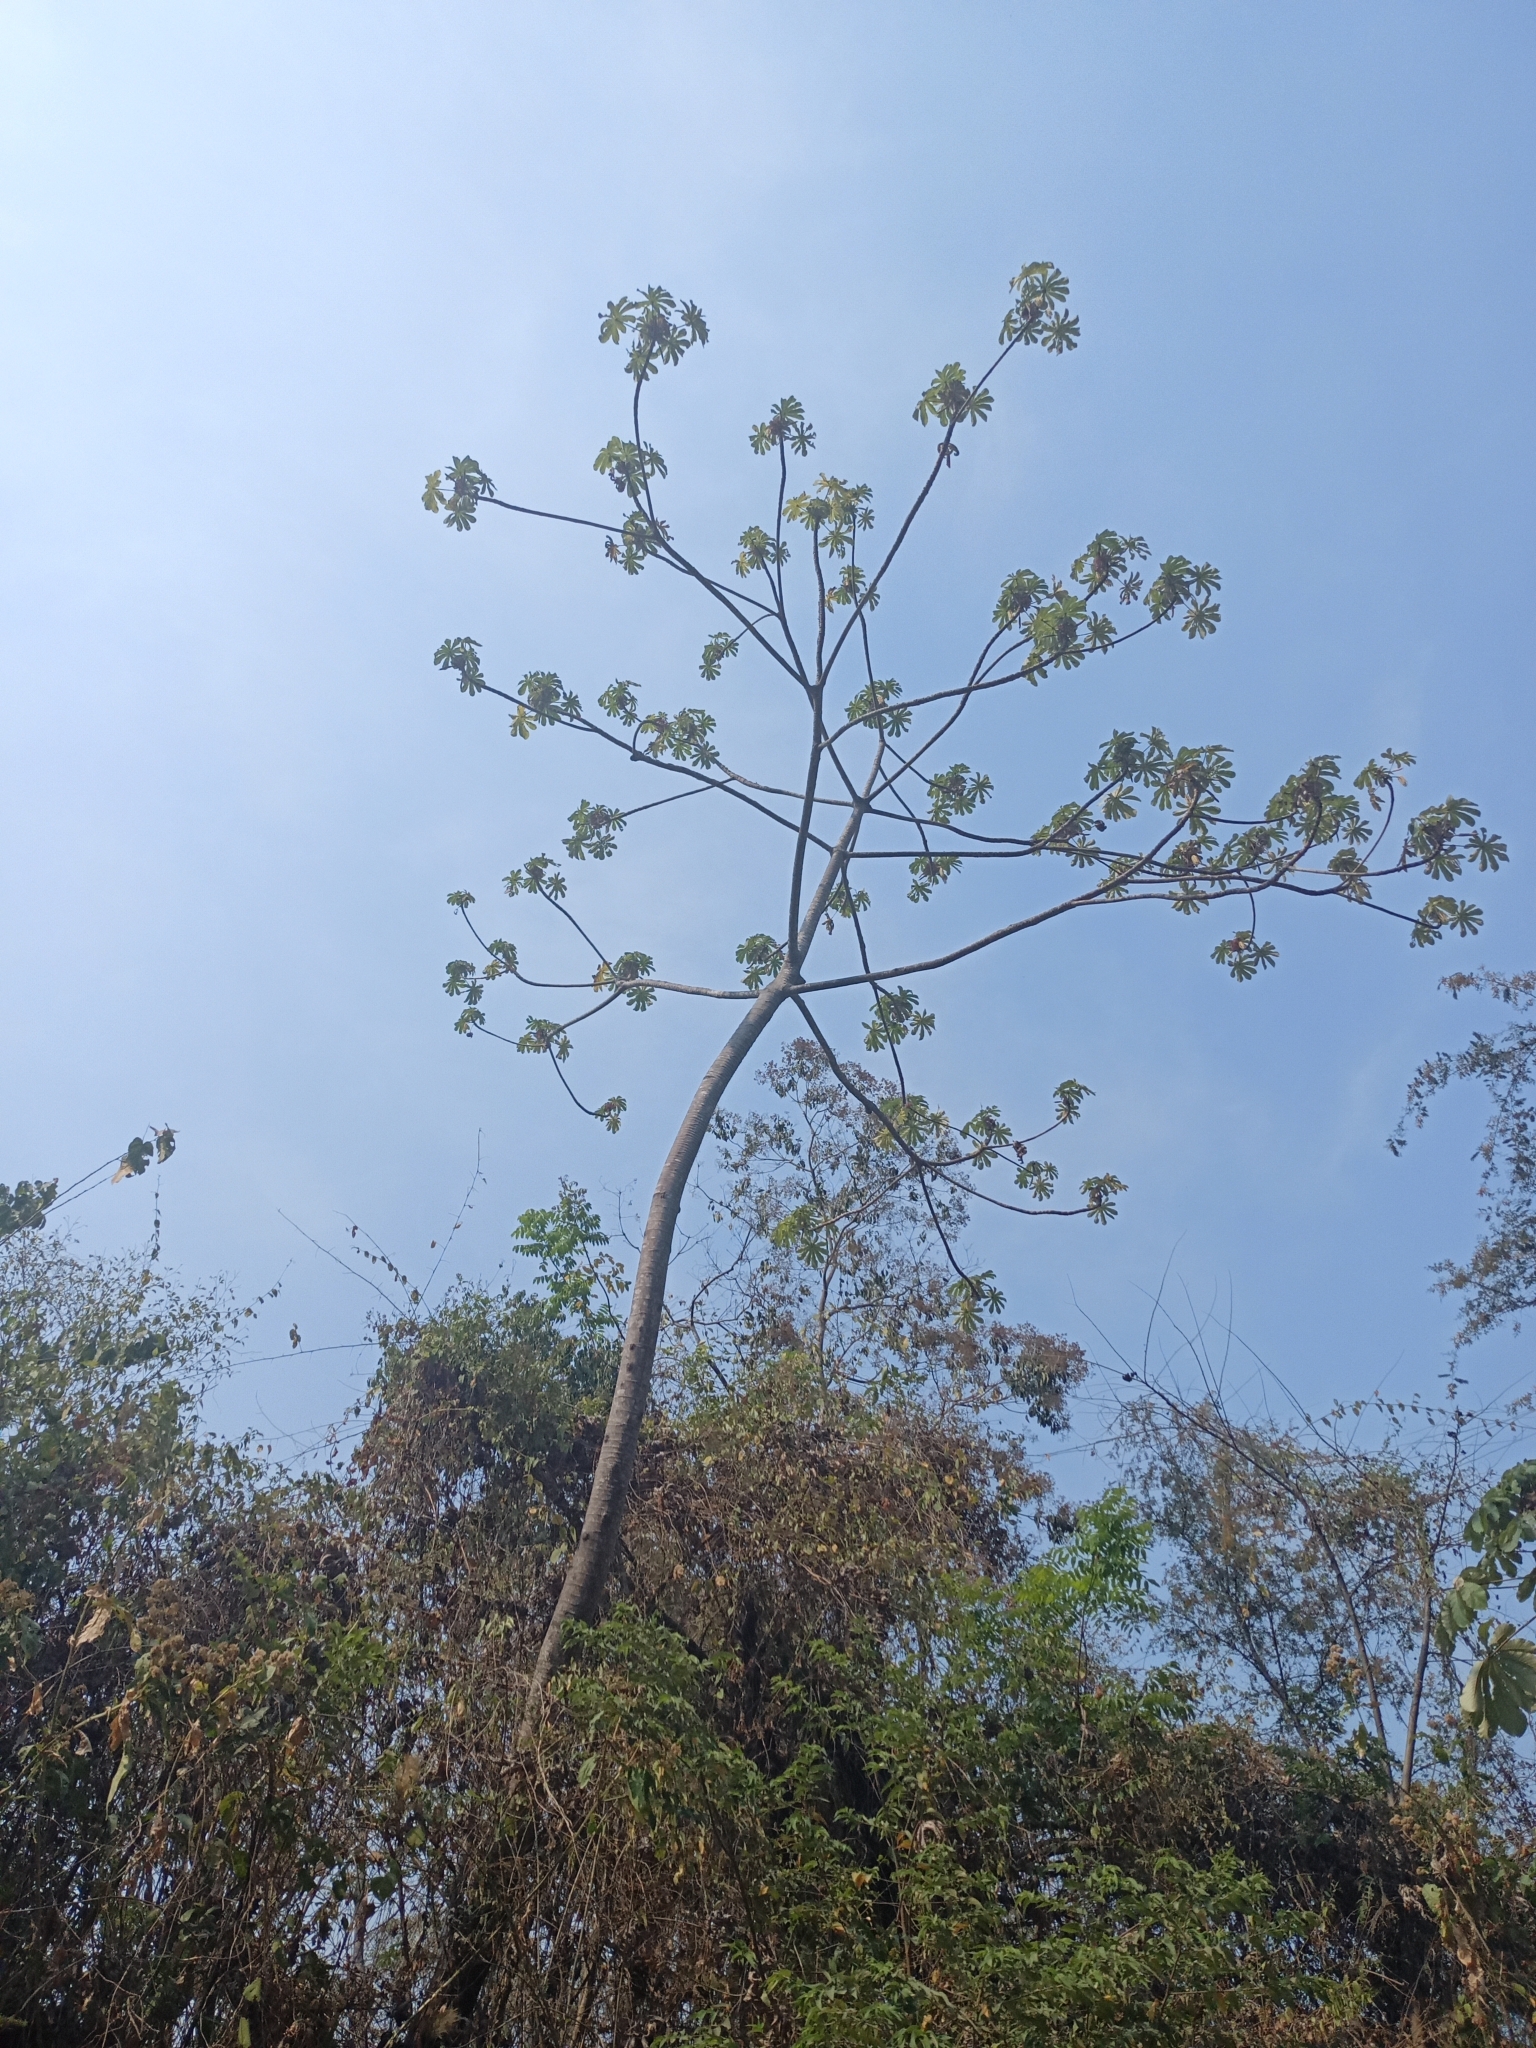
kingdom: Plantae
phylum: Tracheophyta
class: Magnoliopsida
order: Rosales
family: Urticaceae
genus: Cecropia
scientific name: Cecropia obtusifolia
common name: Trumpet tree
